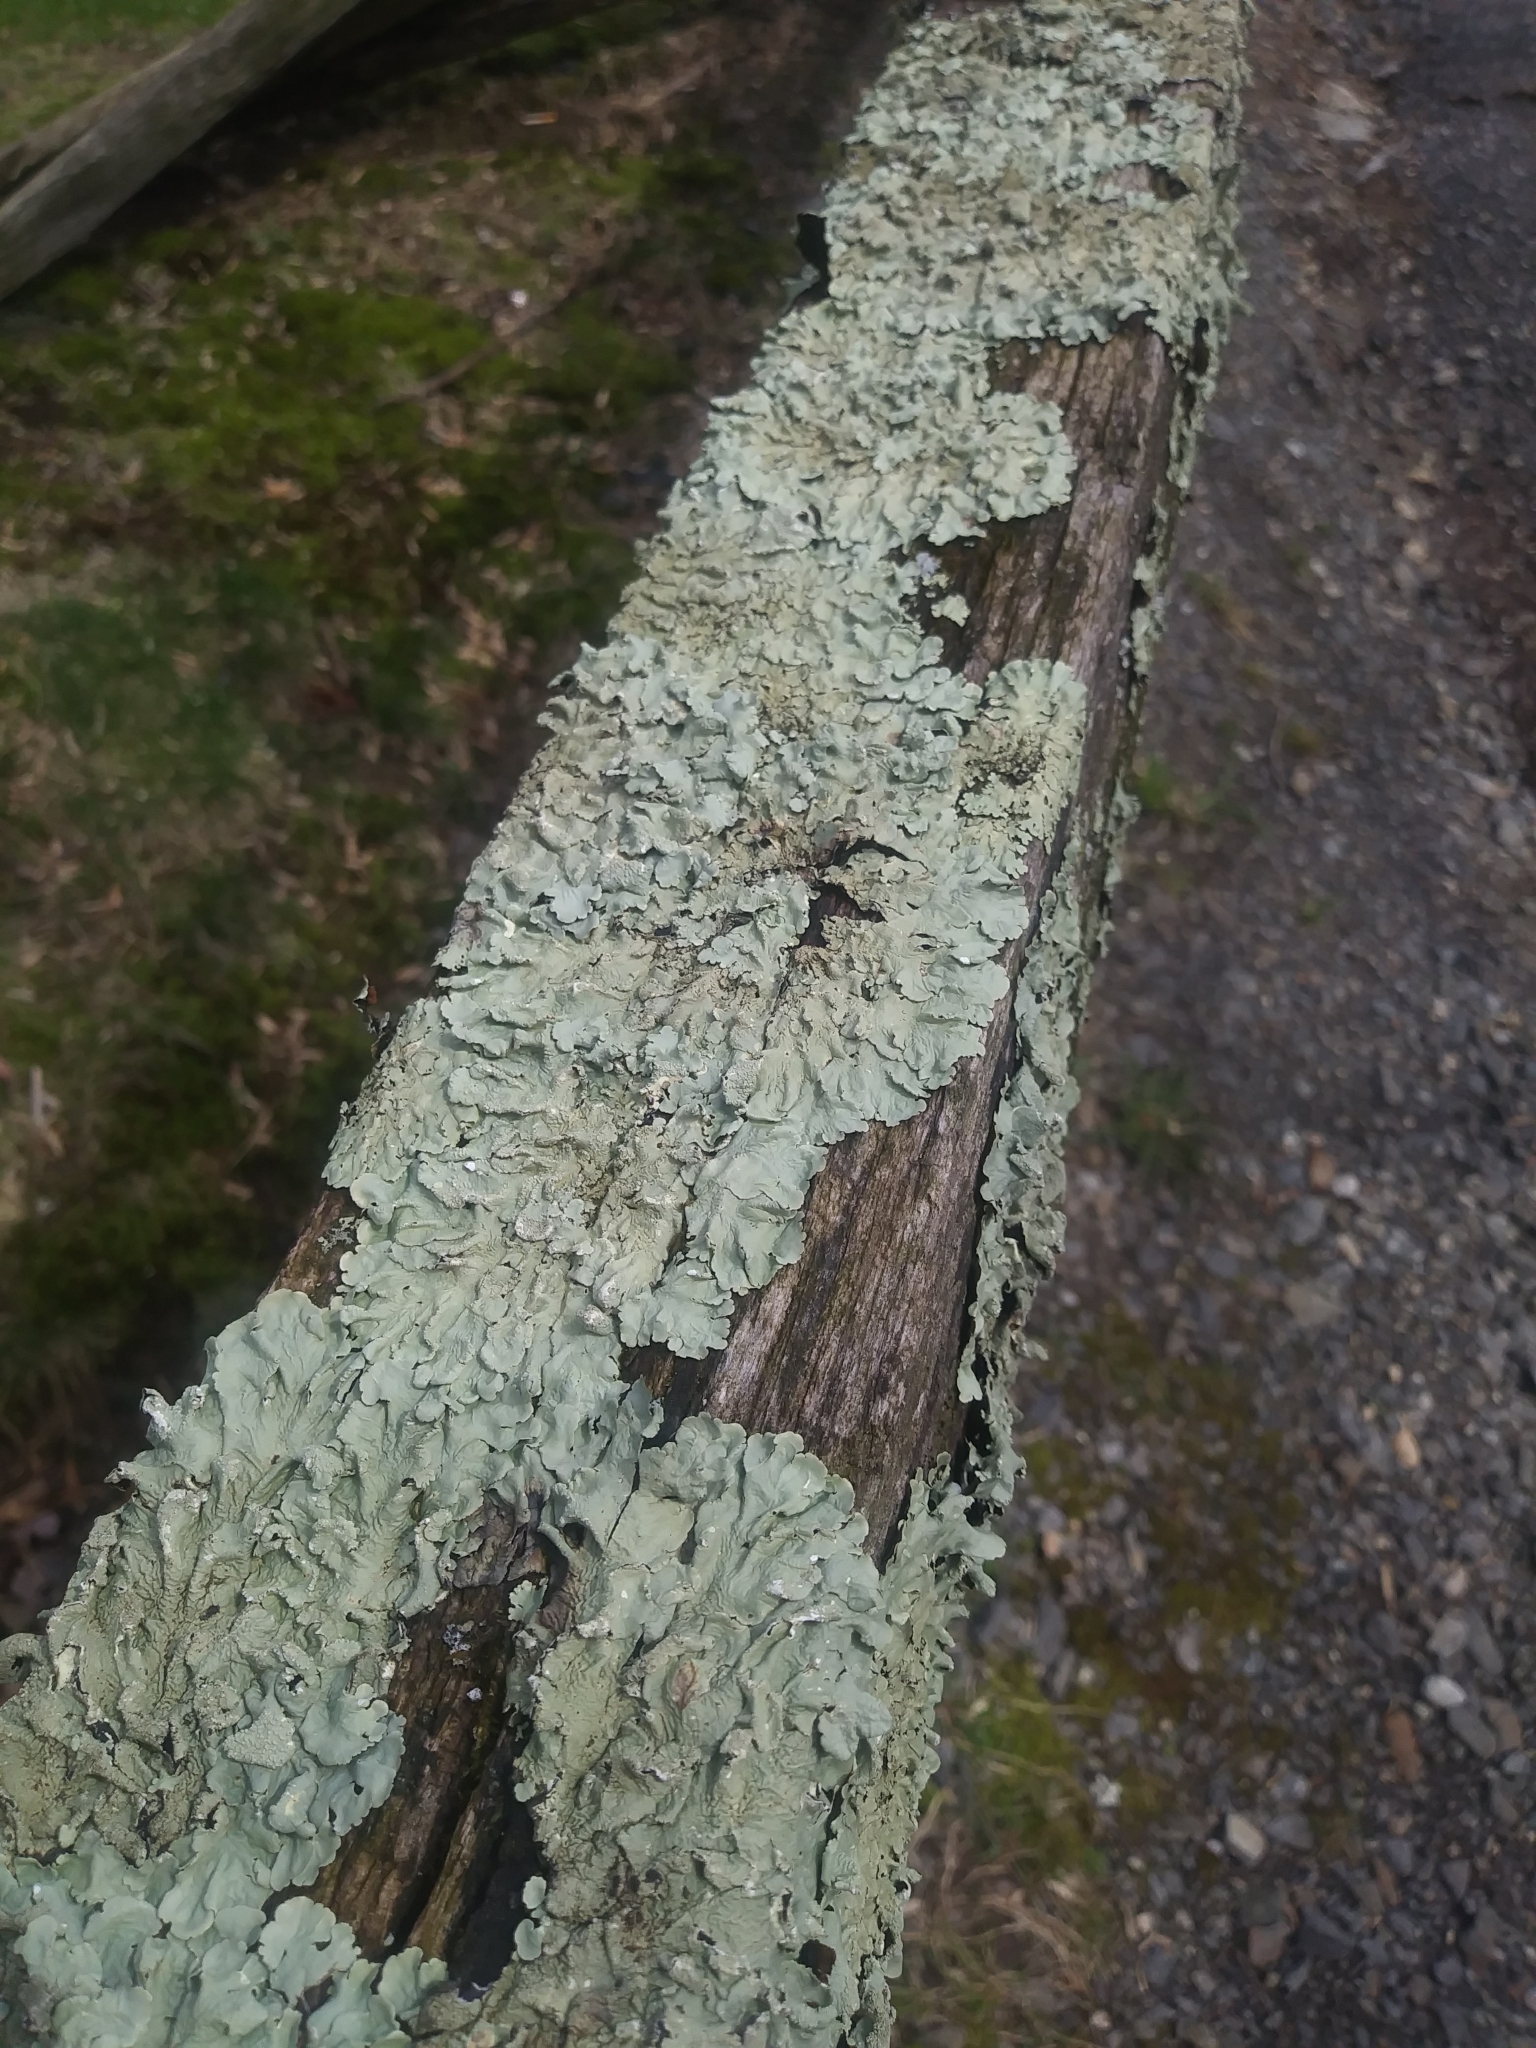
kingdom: Fungi
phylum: Ascomycota
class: Lecanoromycetes
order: Lecanorales
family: Parmeliaceae
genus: Flavoparmelia
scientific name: Flavoparmelia caperata
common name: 40-mile per hour lichen
